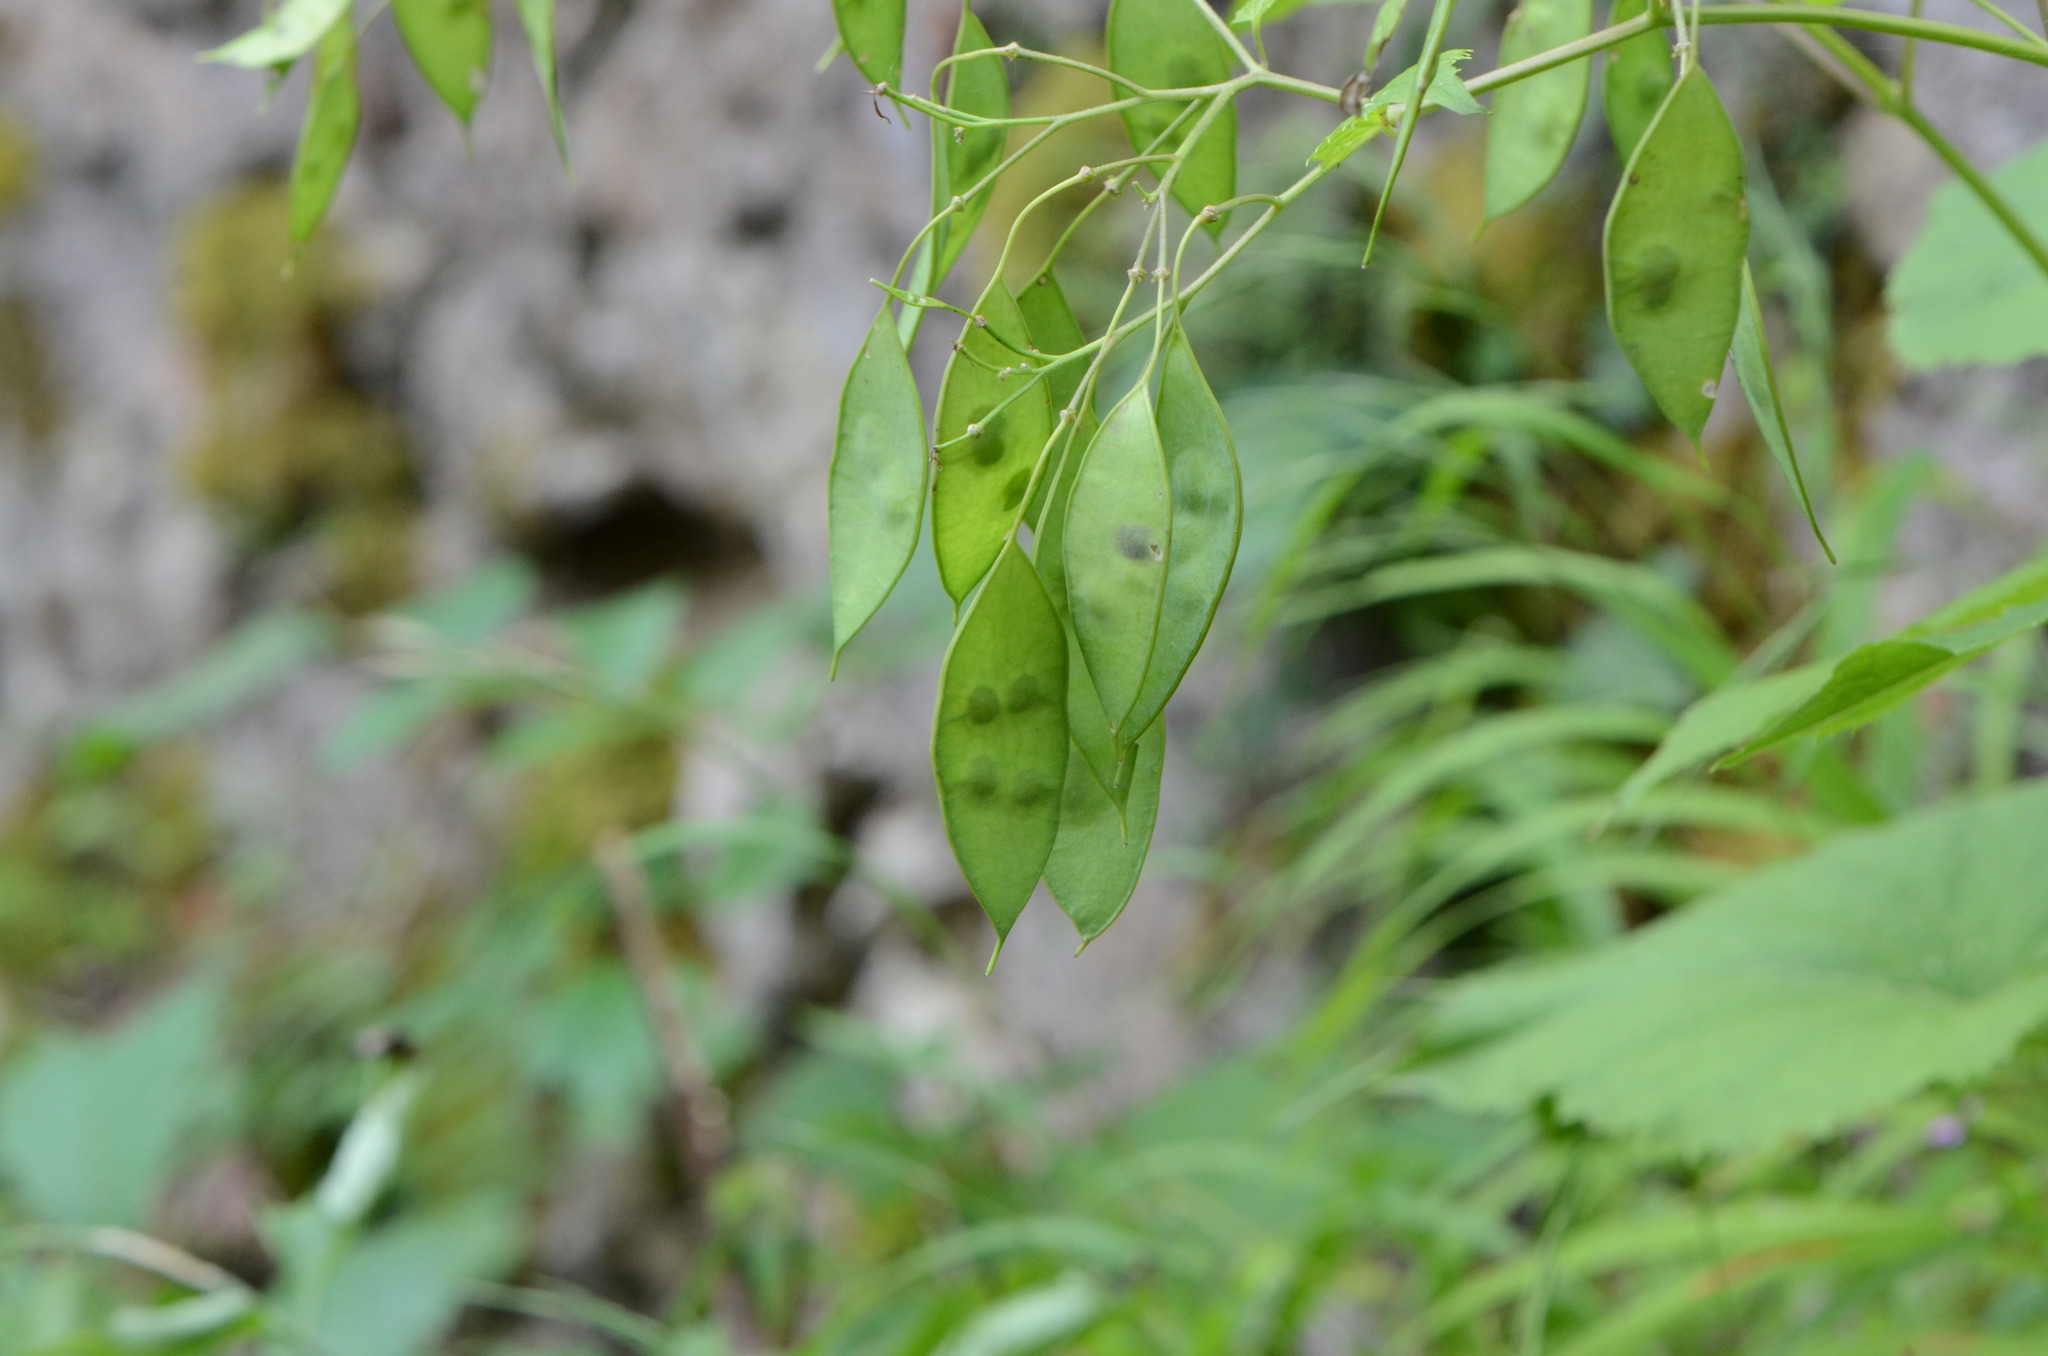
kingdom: Plantae
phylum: Tracheophyta
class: Magnoliopsida
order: Brassicales
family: Brassicaceae
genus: Lunaria
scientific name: Lunaria rediviva
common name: Perennial honesty
